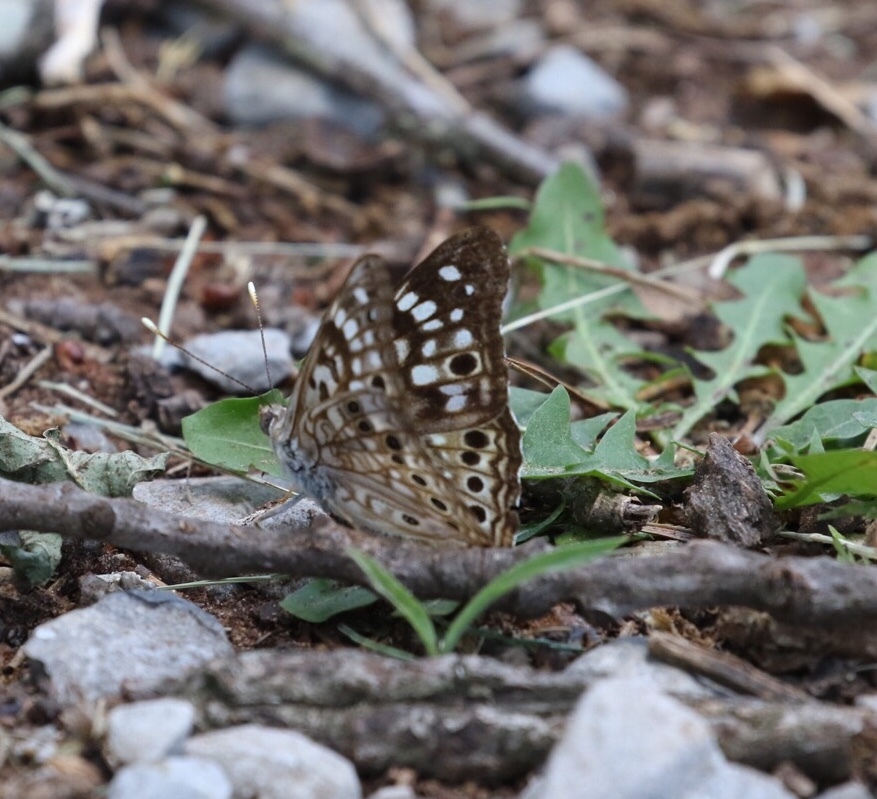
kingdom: Animalia
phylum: Arthropoda
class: Insecta
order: Lepidoptera
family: Nymphalidae
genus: Asterocampa
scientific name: Asterocampa celtis
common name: Hackberry emperor
